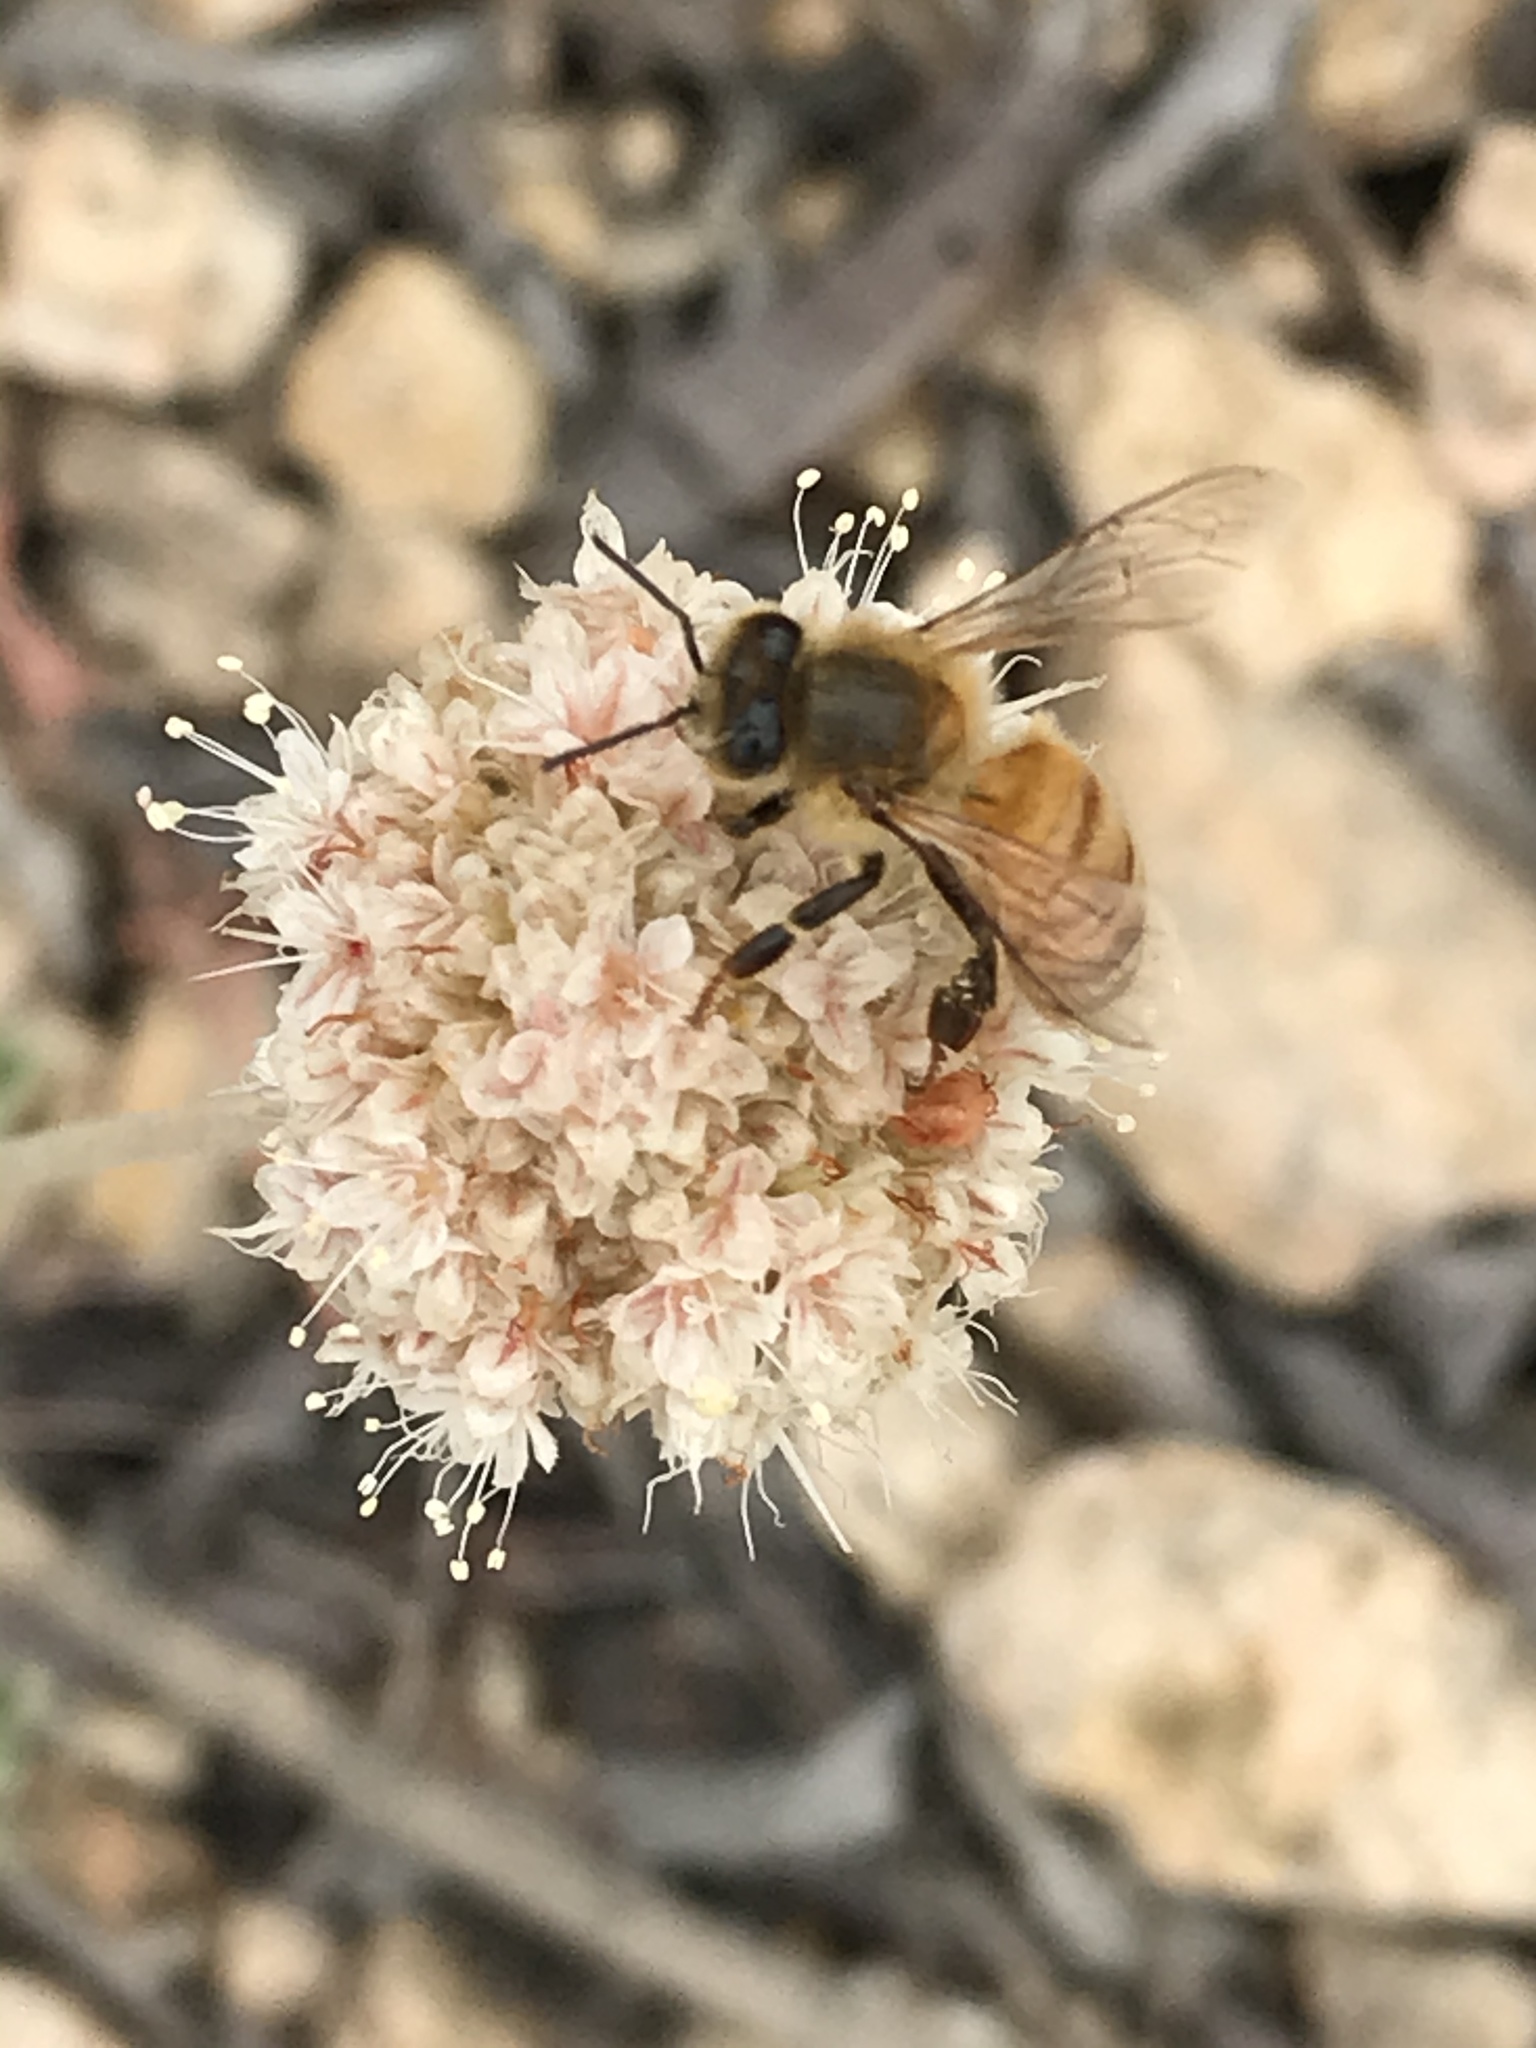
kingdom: Animalia
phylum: Arthropoda
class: Insecta
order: Hymenoptera
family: Apidae
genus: Apis
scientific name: Apis mellifera
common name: Honey bee
